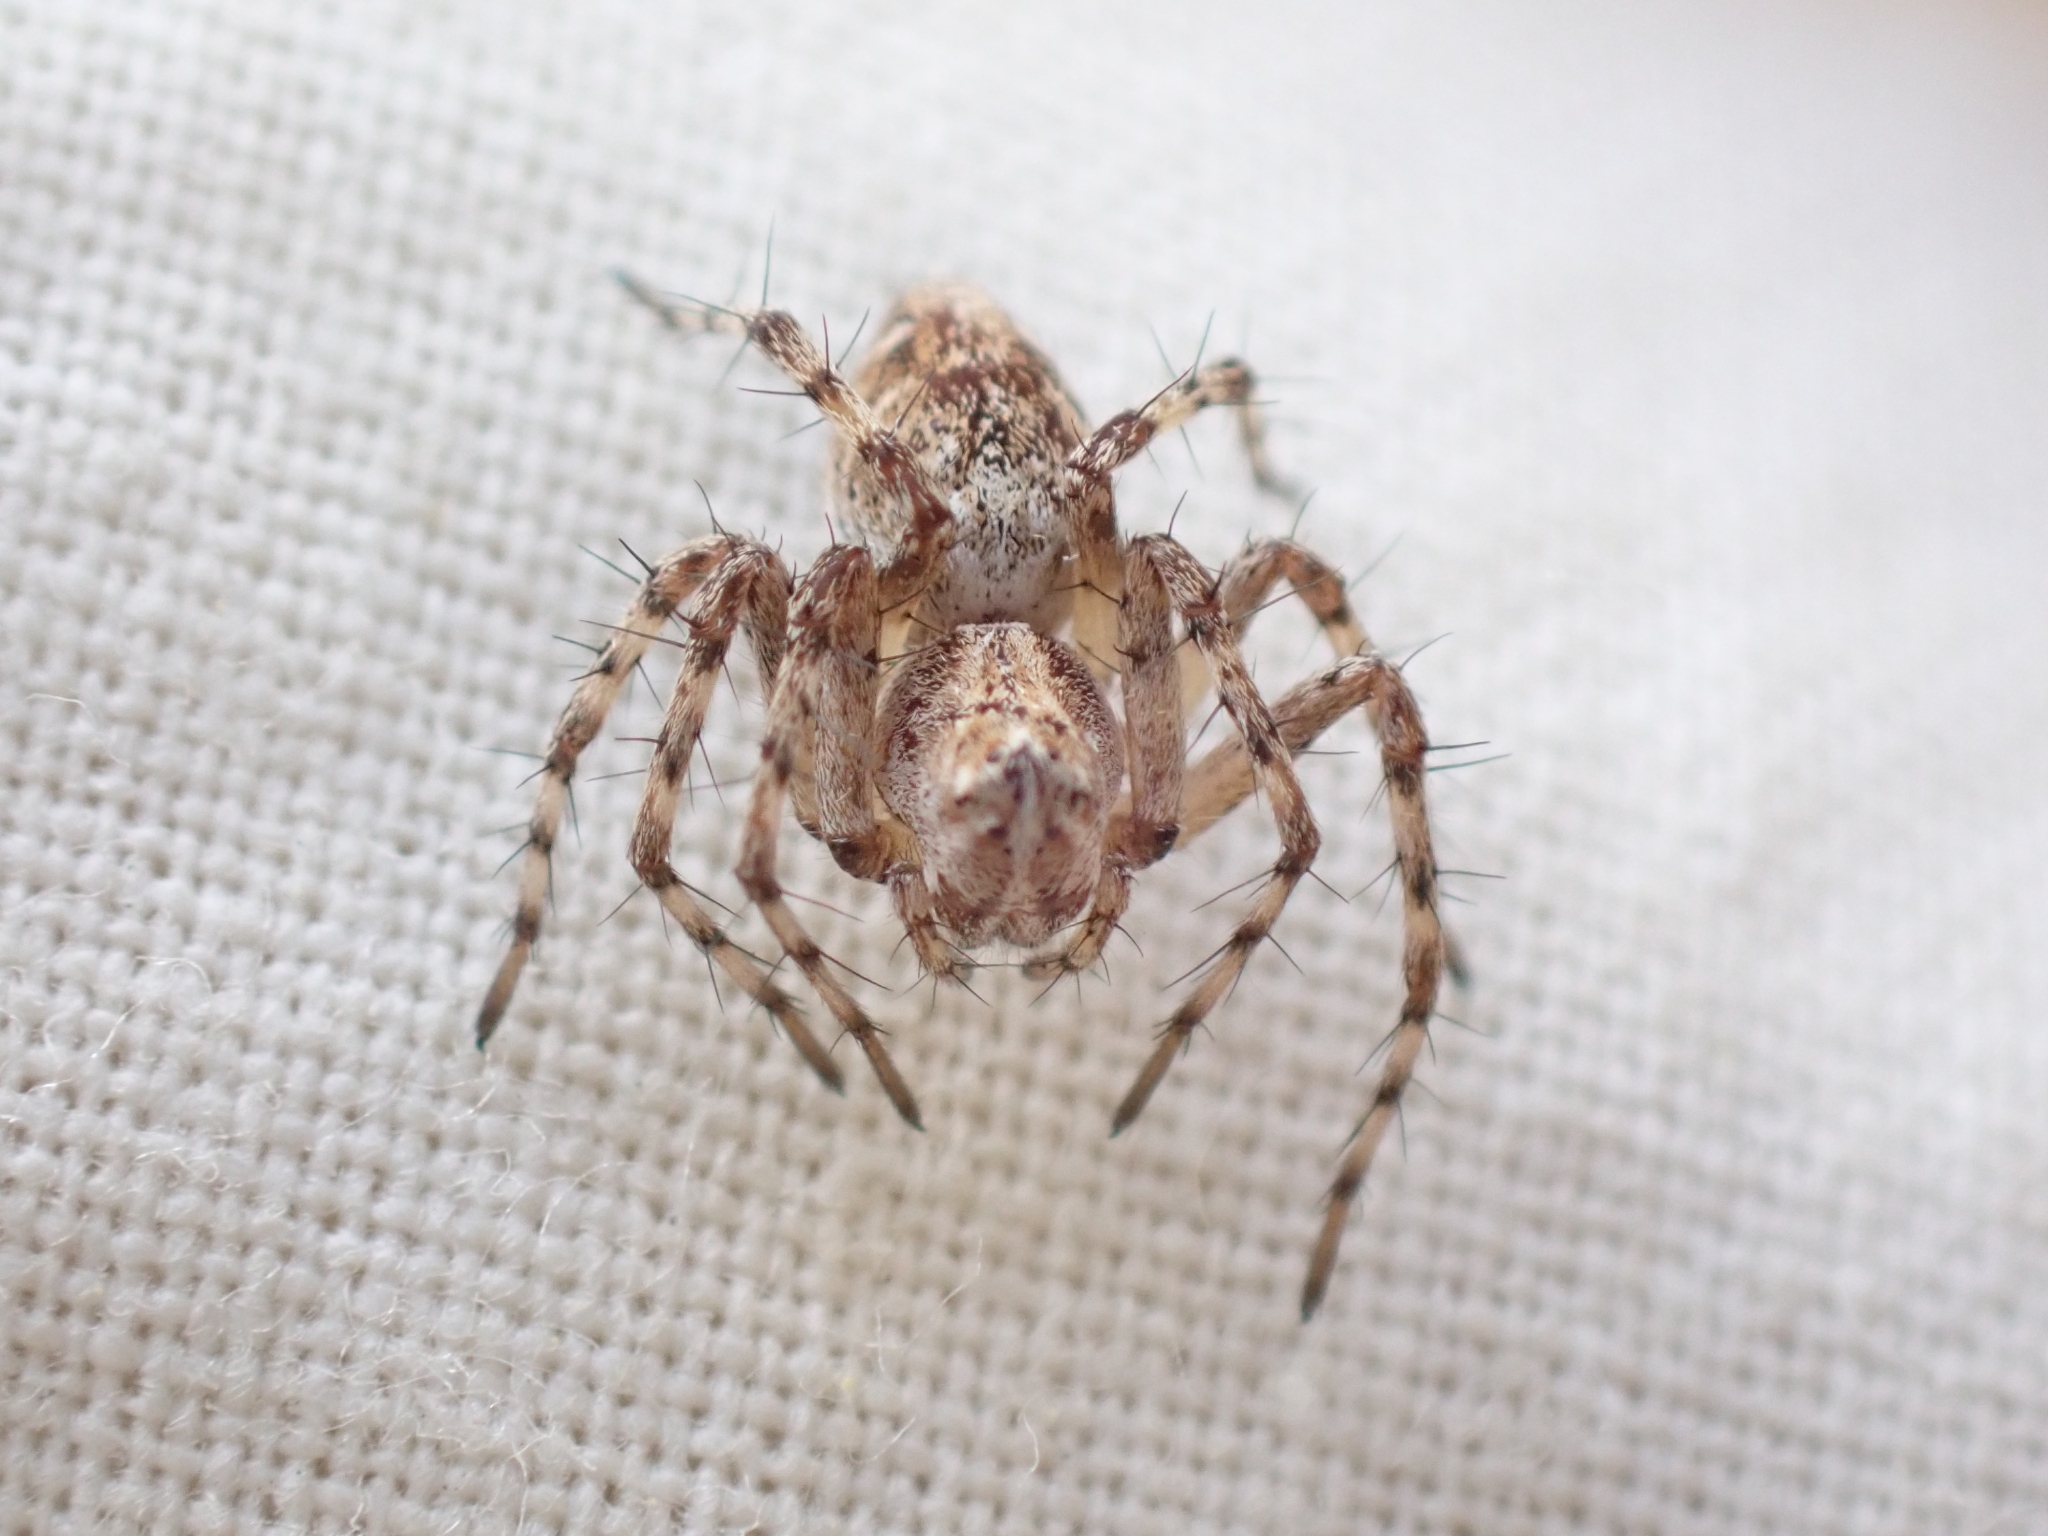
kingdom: Animalia
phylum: Arthropoda
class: Arachnida
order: Araneae
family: Oxyopidae
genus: Oxyopes
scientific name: Oxyopes scalaris
